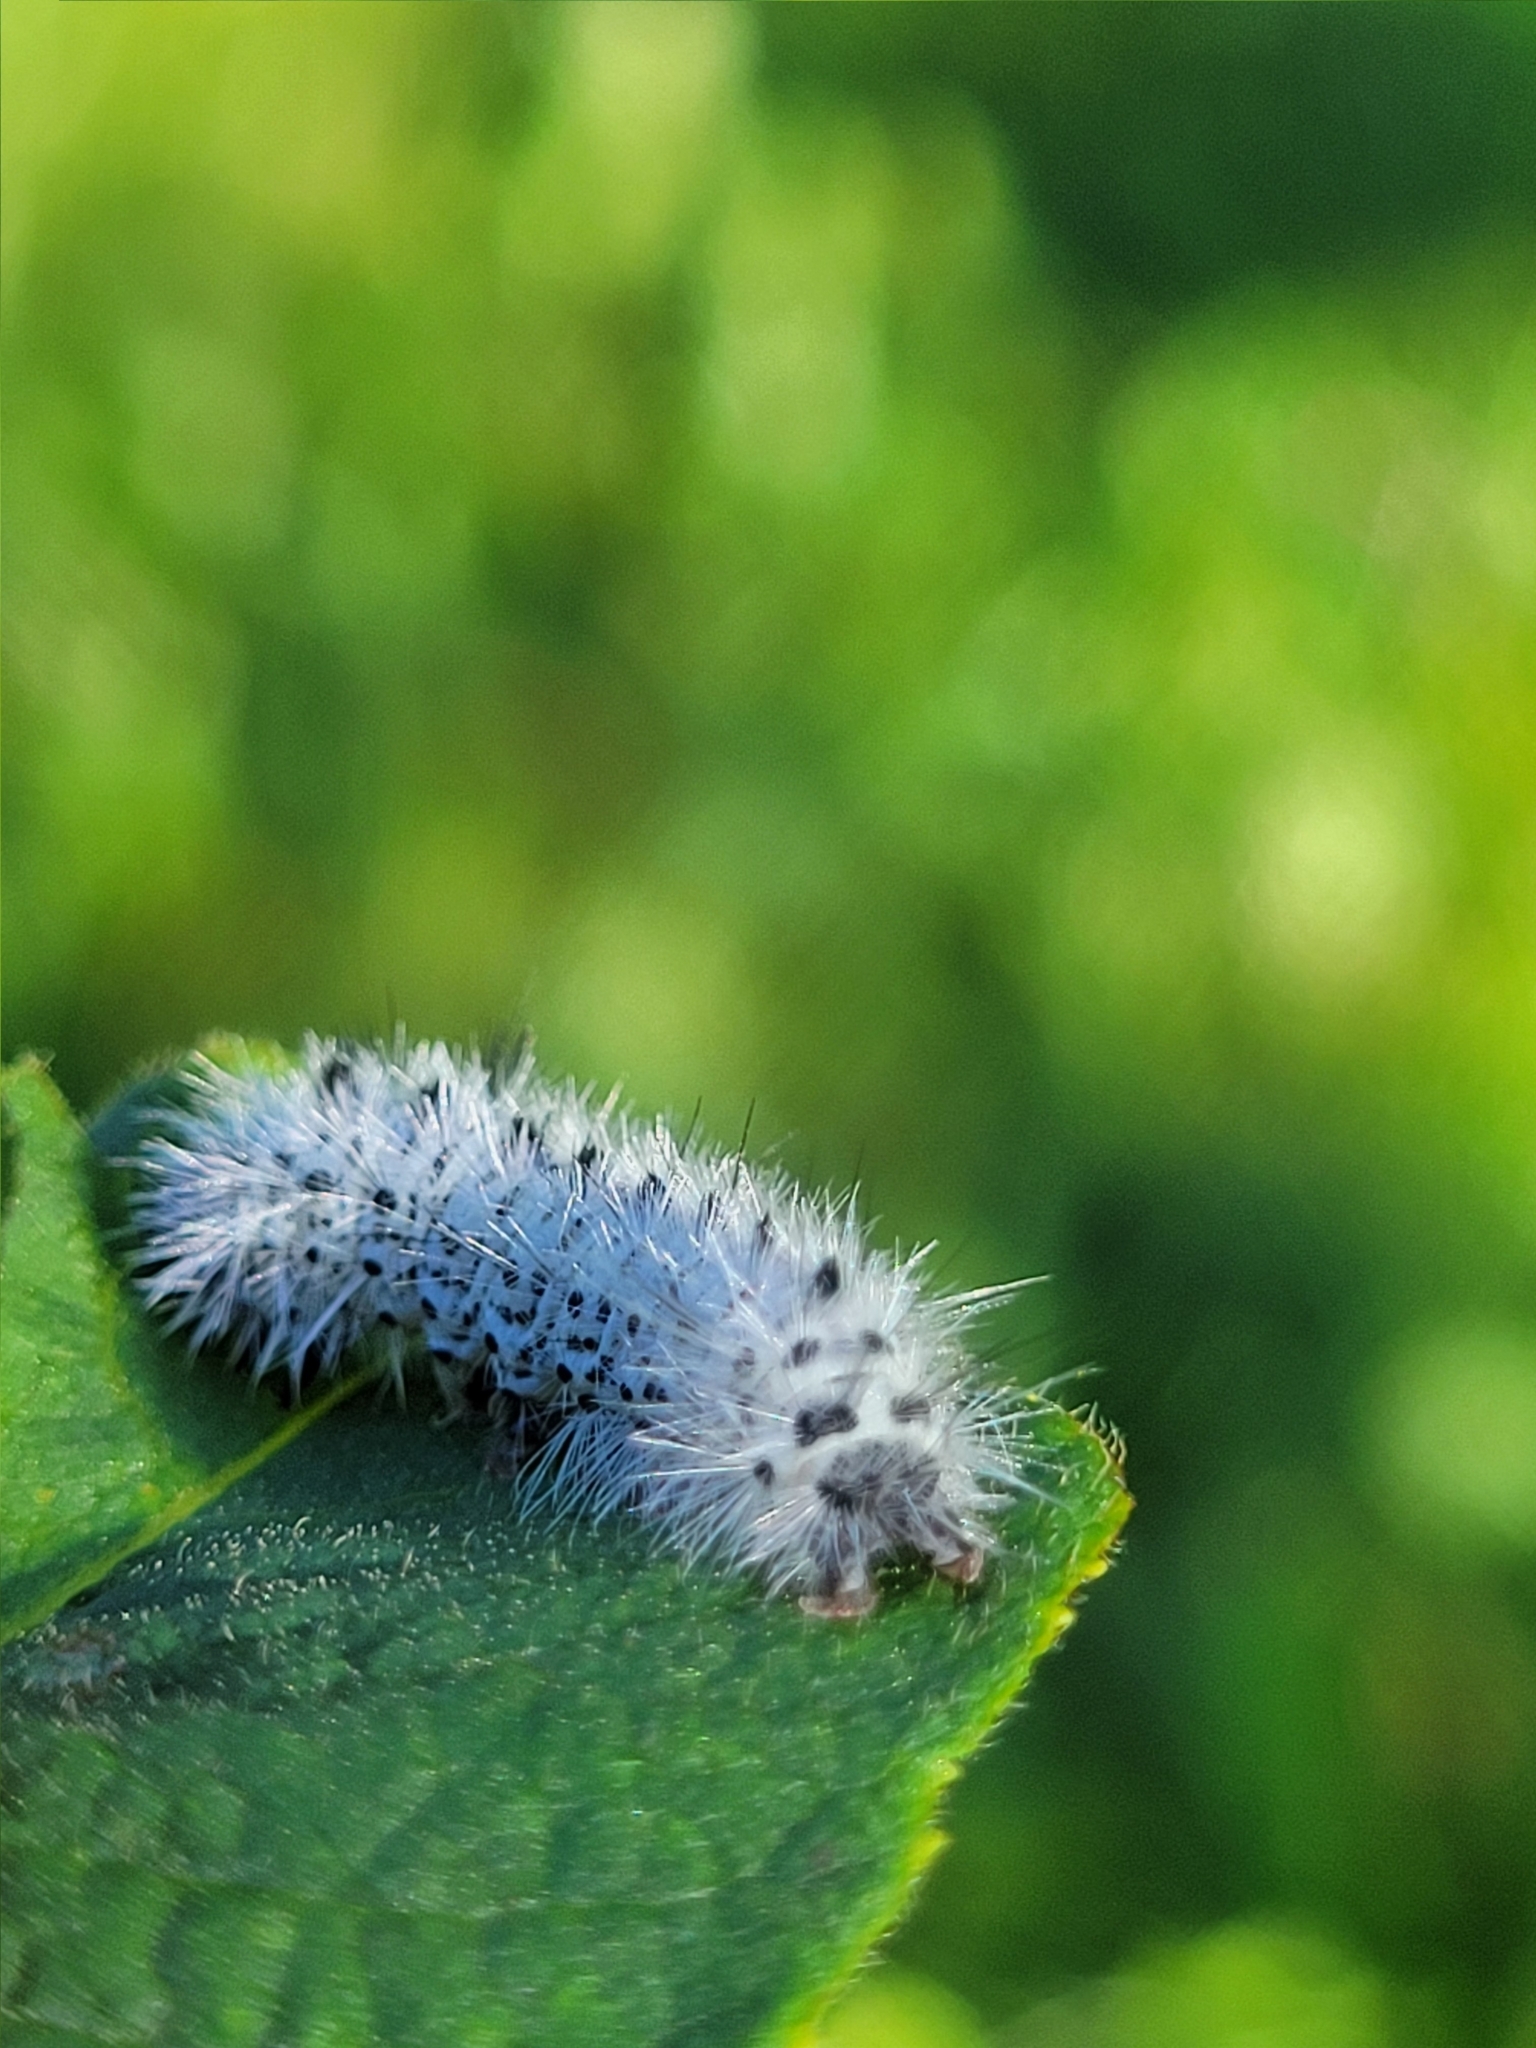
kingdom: Animalia
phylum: Arthropoda
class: Insecta
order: Lepidoptera
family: Erebidae
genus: Lophocampa
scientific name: Lophocampa caryae
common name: Hickory tussock moth
